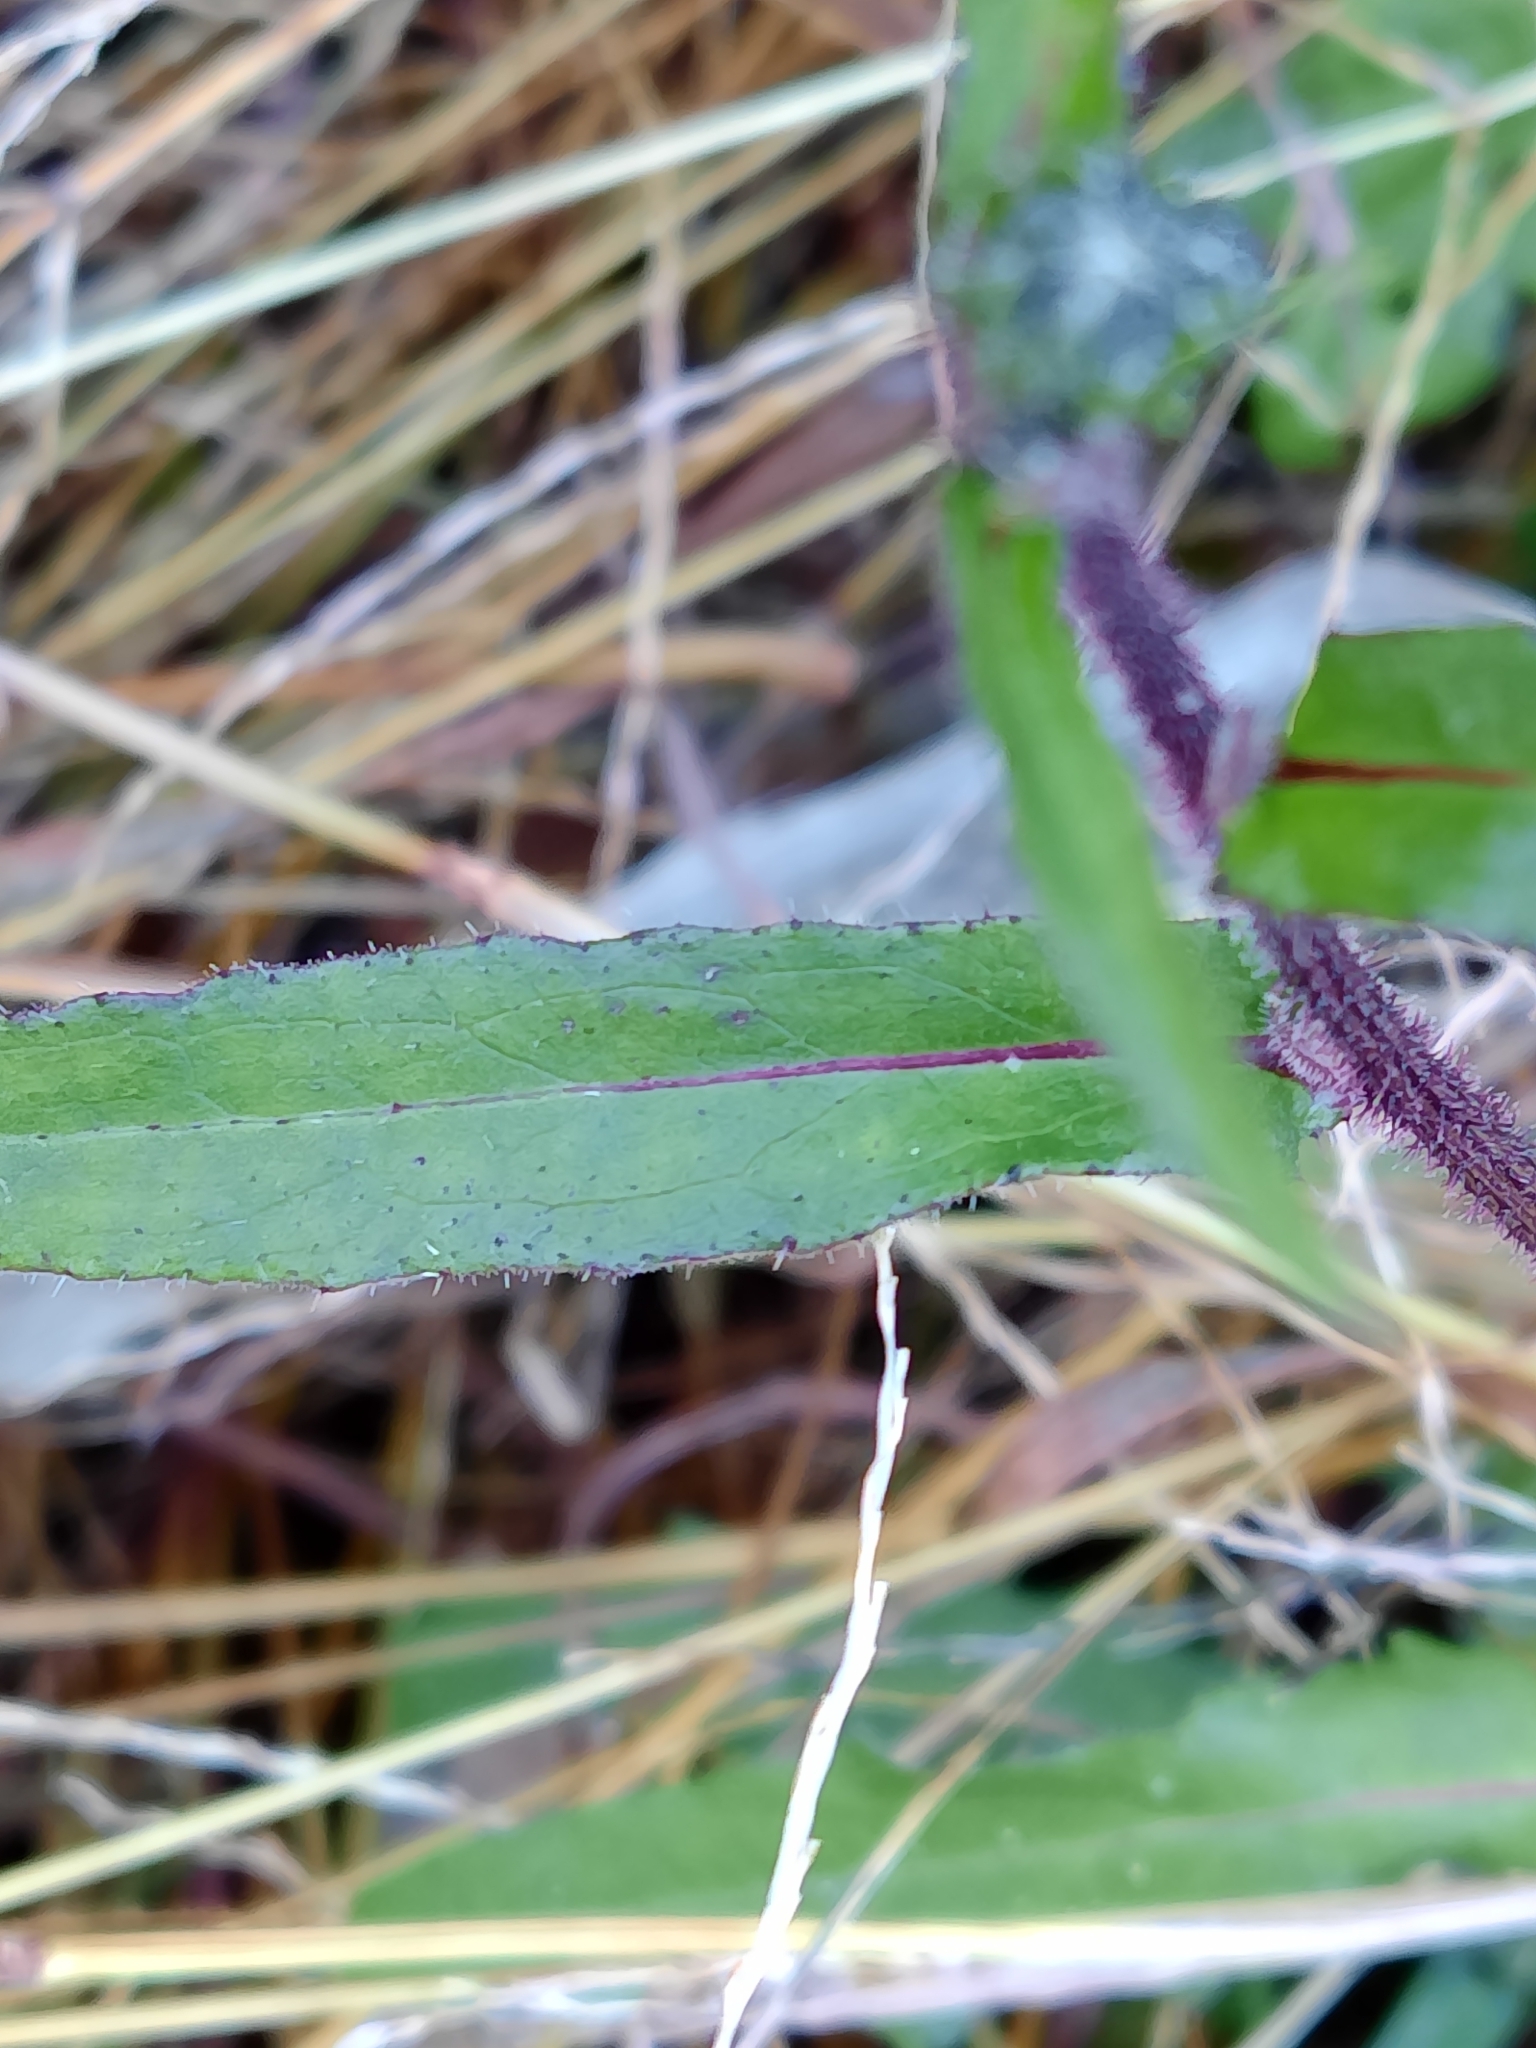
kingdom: Plantae
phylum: Tracheophyta
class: Magnoliopsida
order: Asterales
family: Asteraceae
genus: Picris
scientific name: Picris hieracioides
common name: Hawkweed oxtongue
